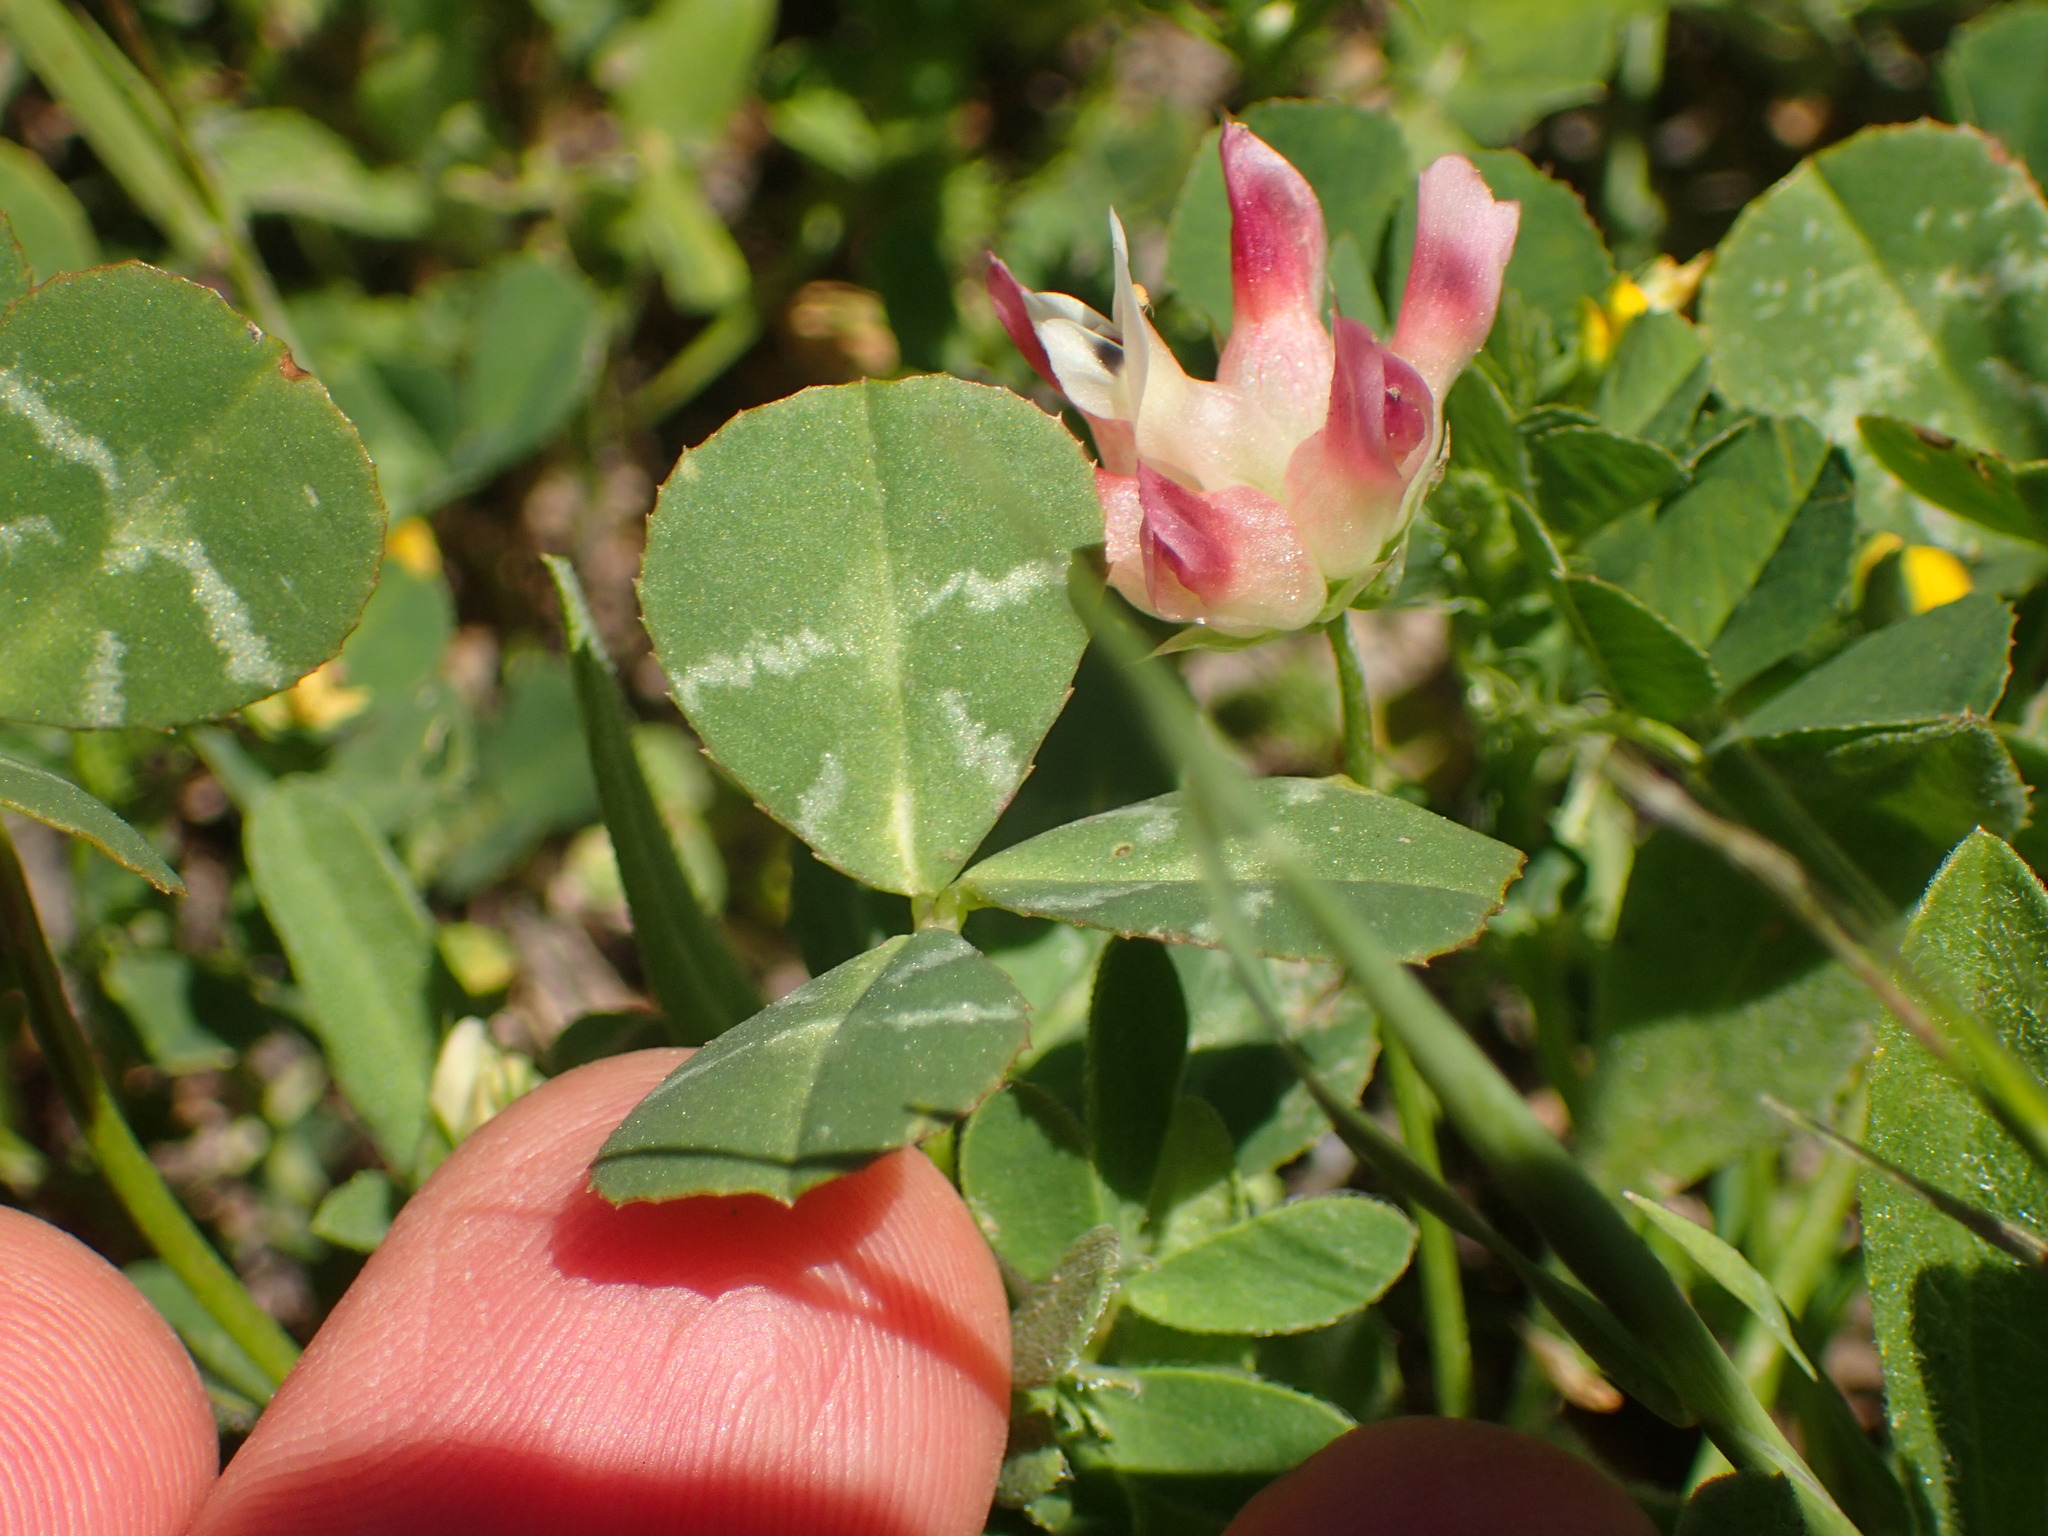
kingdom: Plantae
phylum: Tracheophyta
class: Magnoliopsida
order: Fabales
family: Fabaceae
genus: Trifolium
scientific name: Trifolium fucatum
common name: Puff clover
